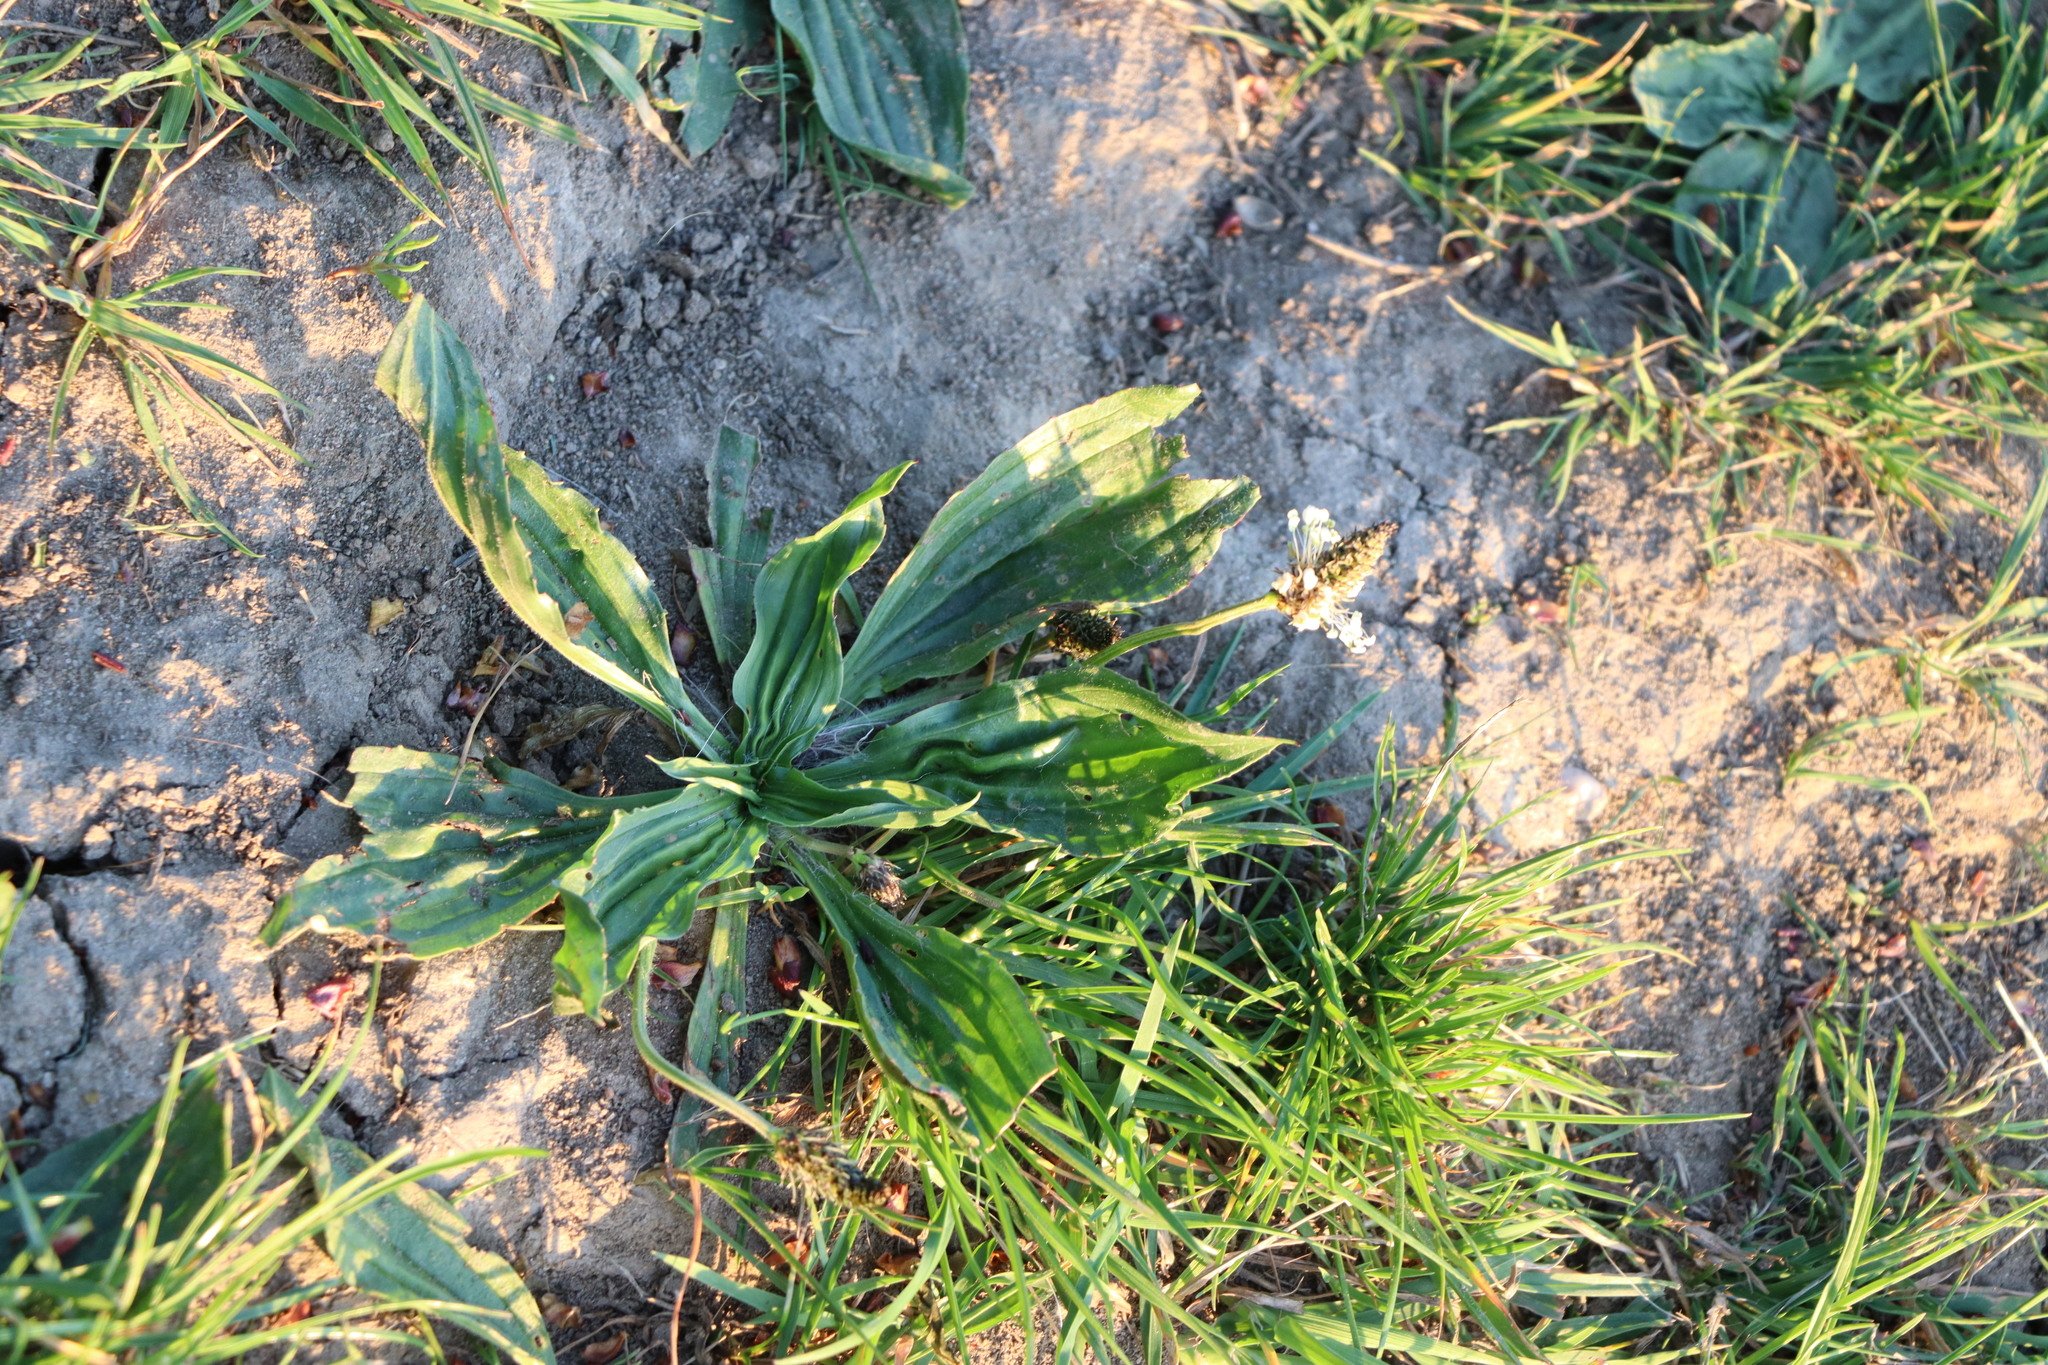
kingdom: Plantae
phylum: Tracheophyta
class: Magnoliopsida
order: Lamiales
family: Plantaginaceae
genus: Plantago
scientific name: Plantago lanceolata
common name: Ribwort plantain
